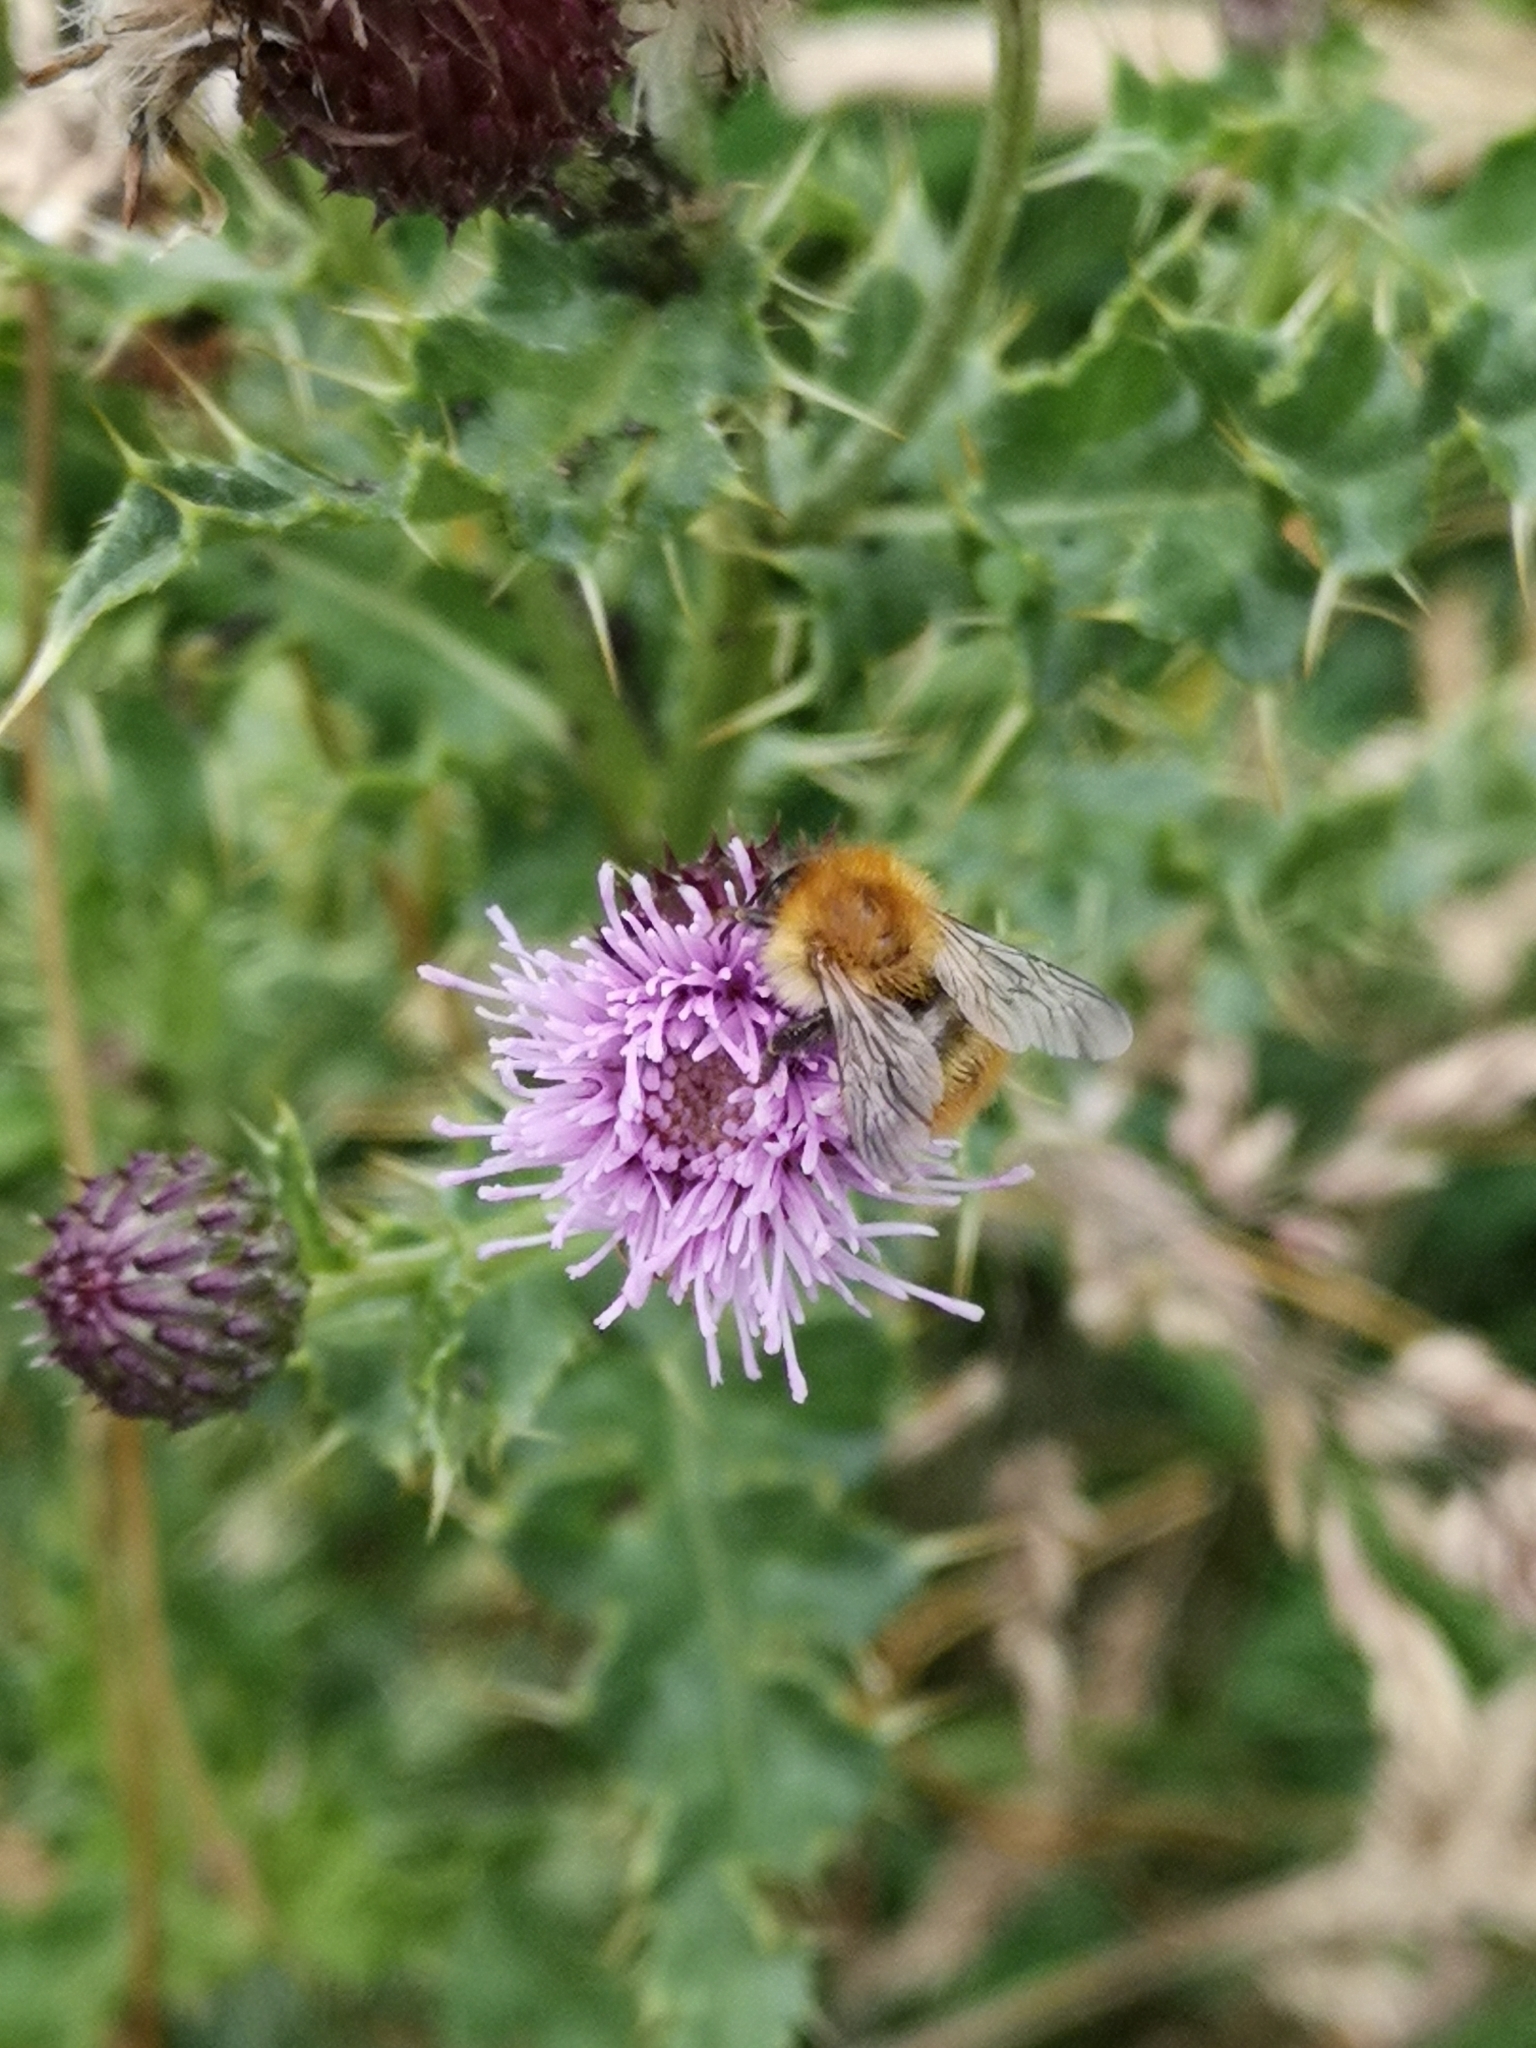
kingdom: Animalia
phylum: Arthropoda
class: Insecta
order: Hymenoptera
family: Apidae
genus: Bombus
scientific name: Bombus pascuorum
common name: Common carder bee
